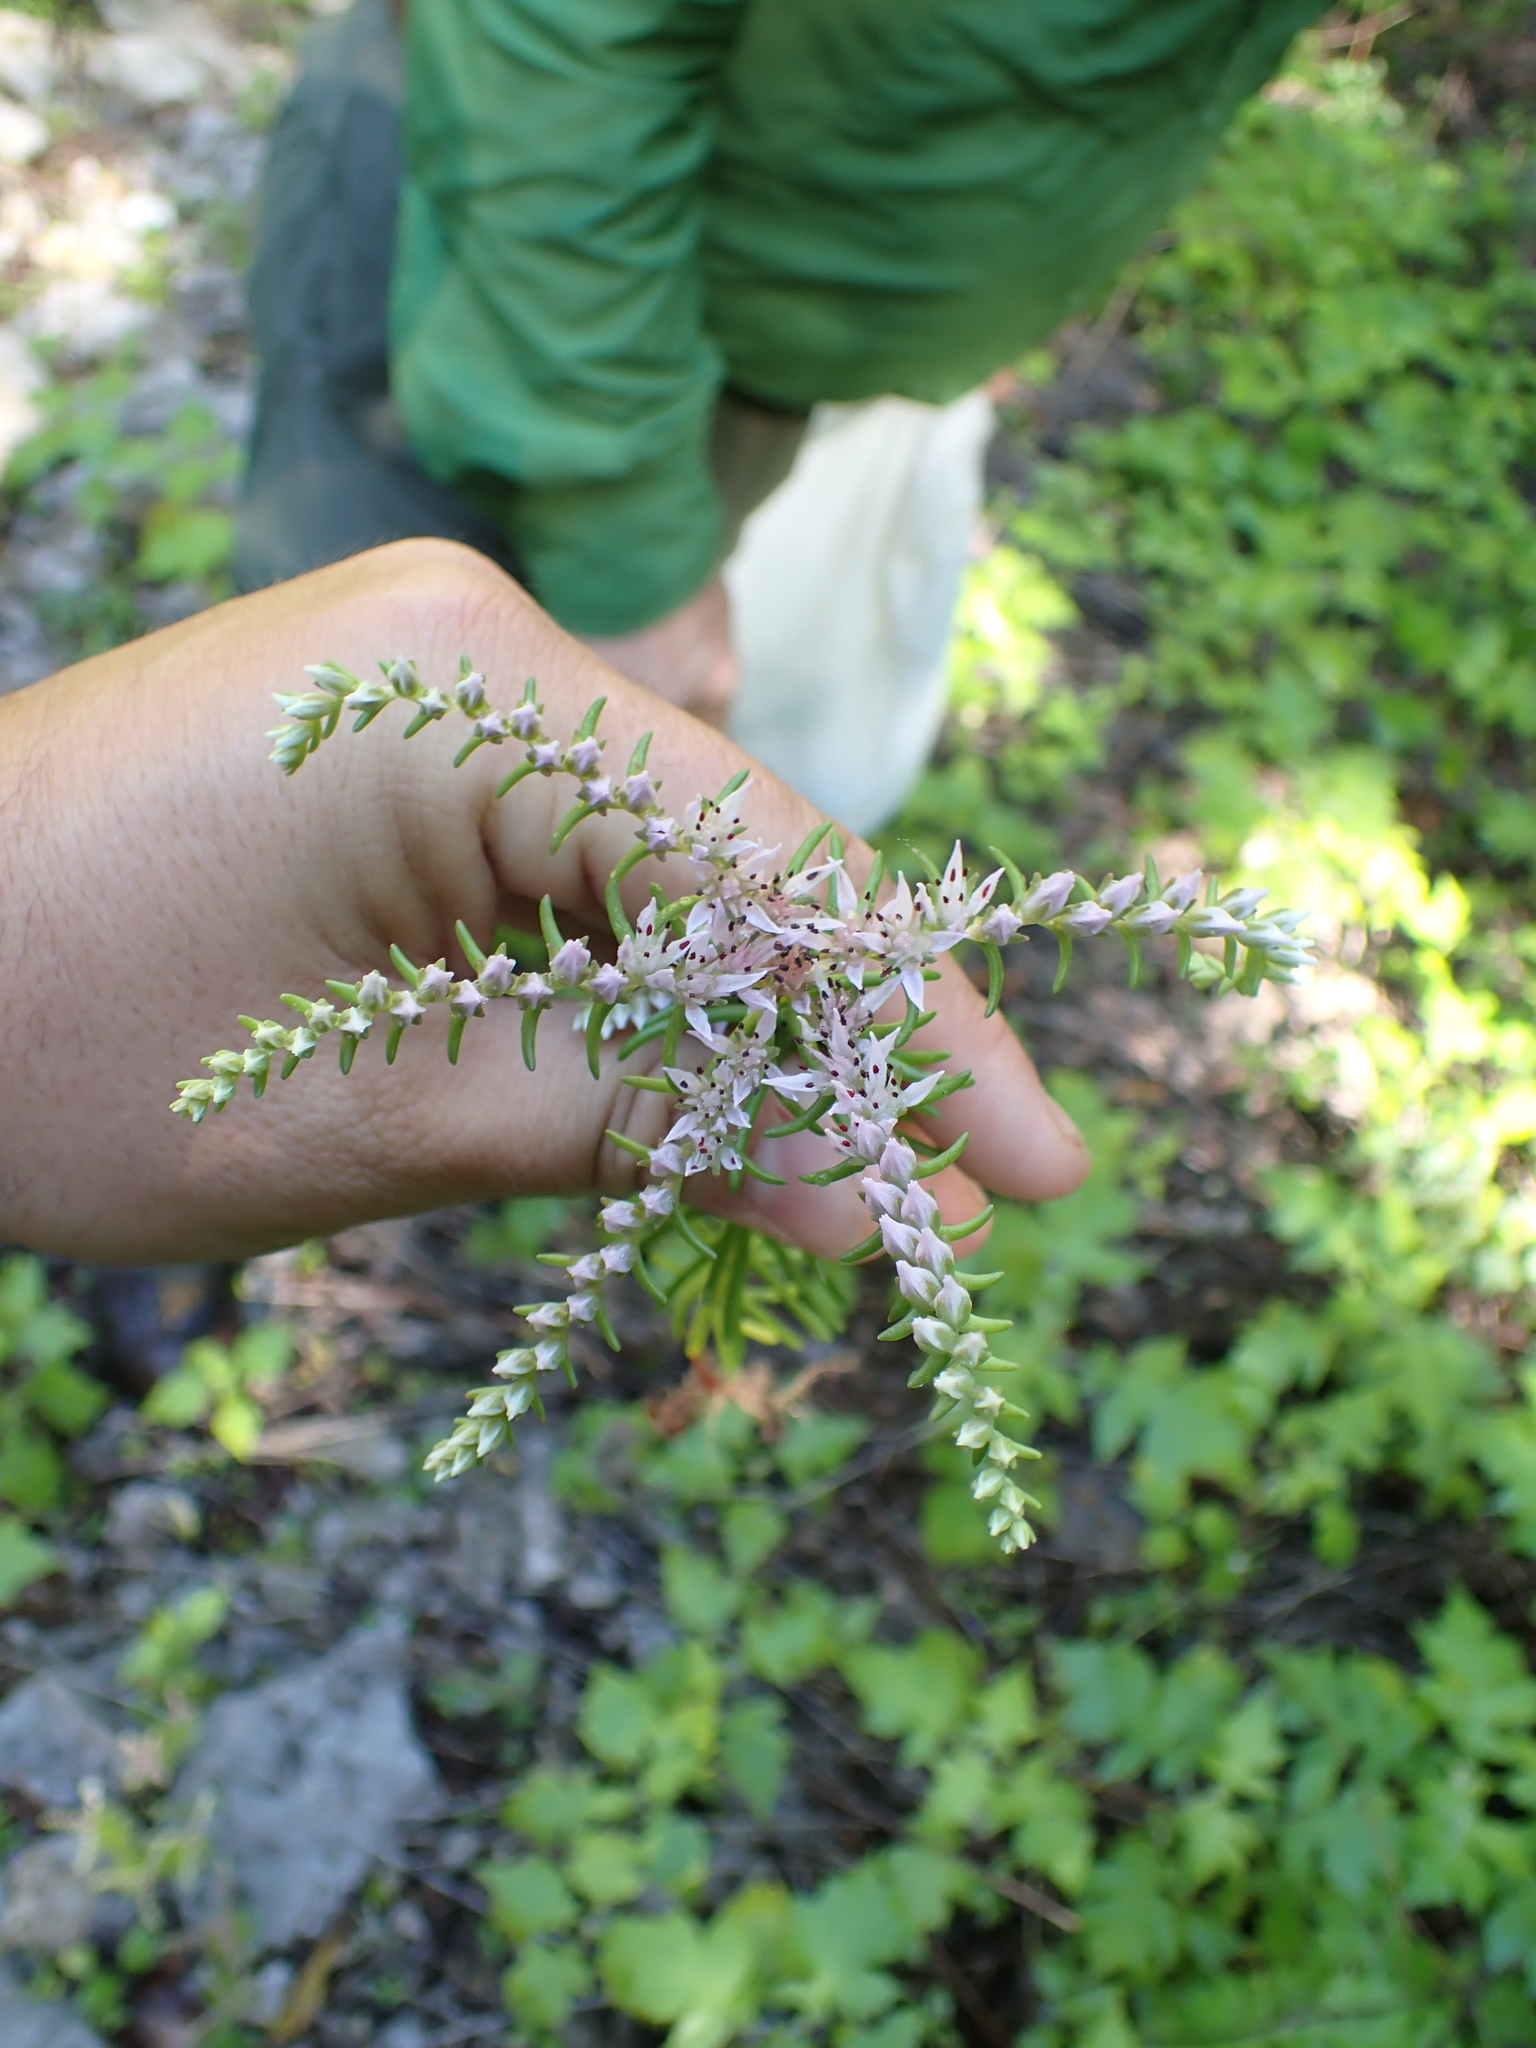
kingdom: Plantae
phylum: Tracheophyta
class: Magnoliopsida
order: Saxifragales
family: Crassulaceae
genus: Sedum
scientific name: Sedum pulchellum
